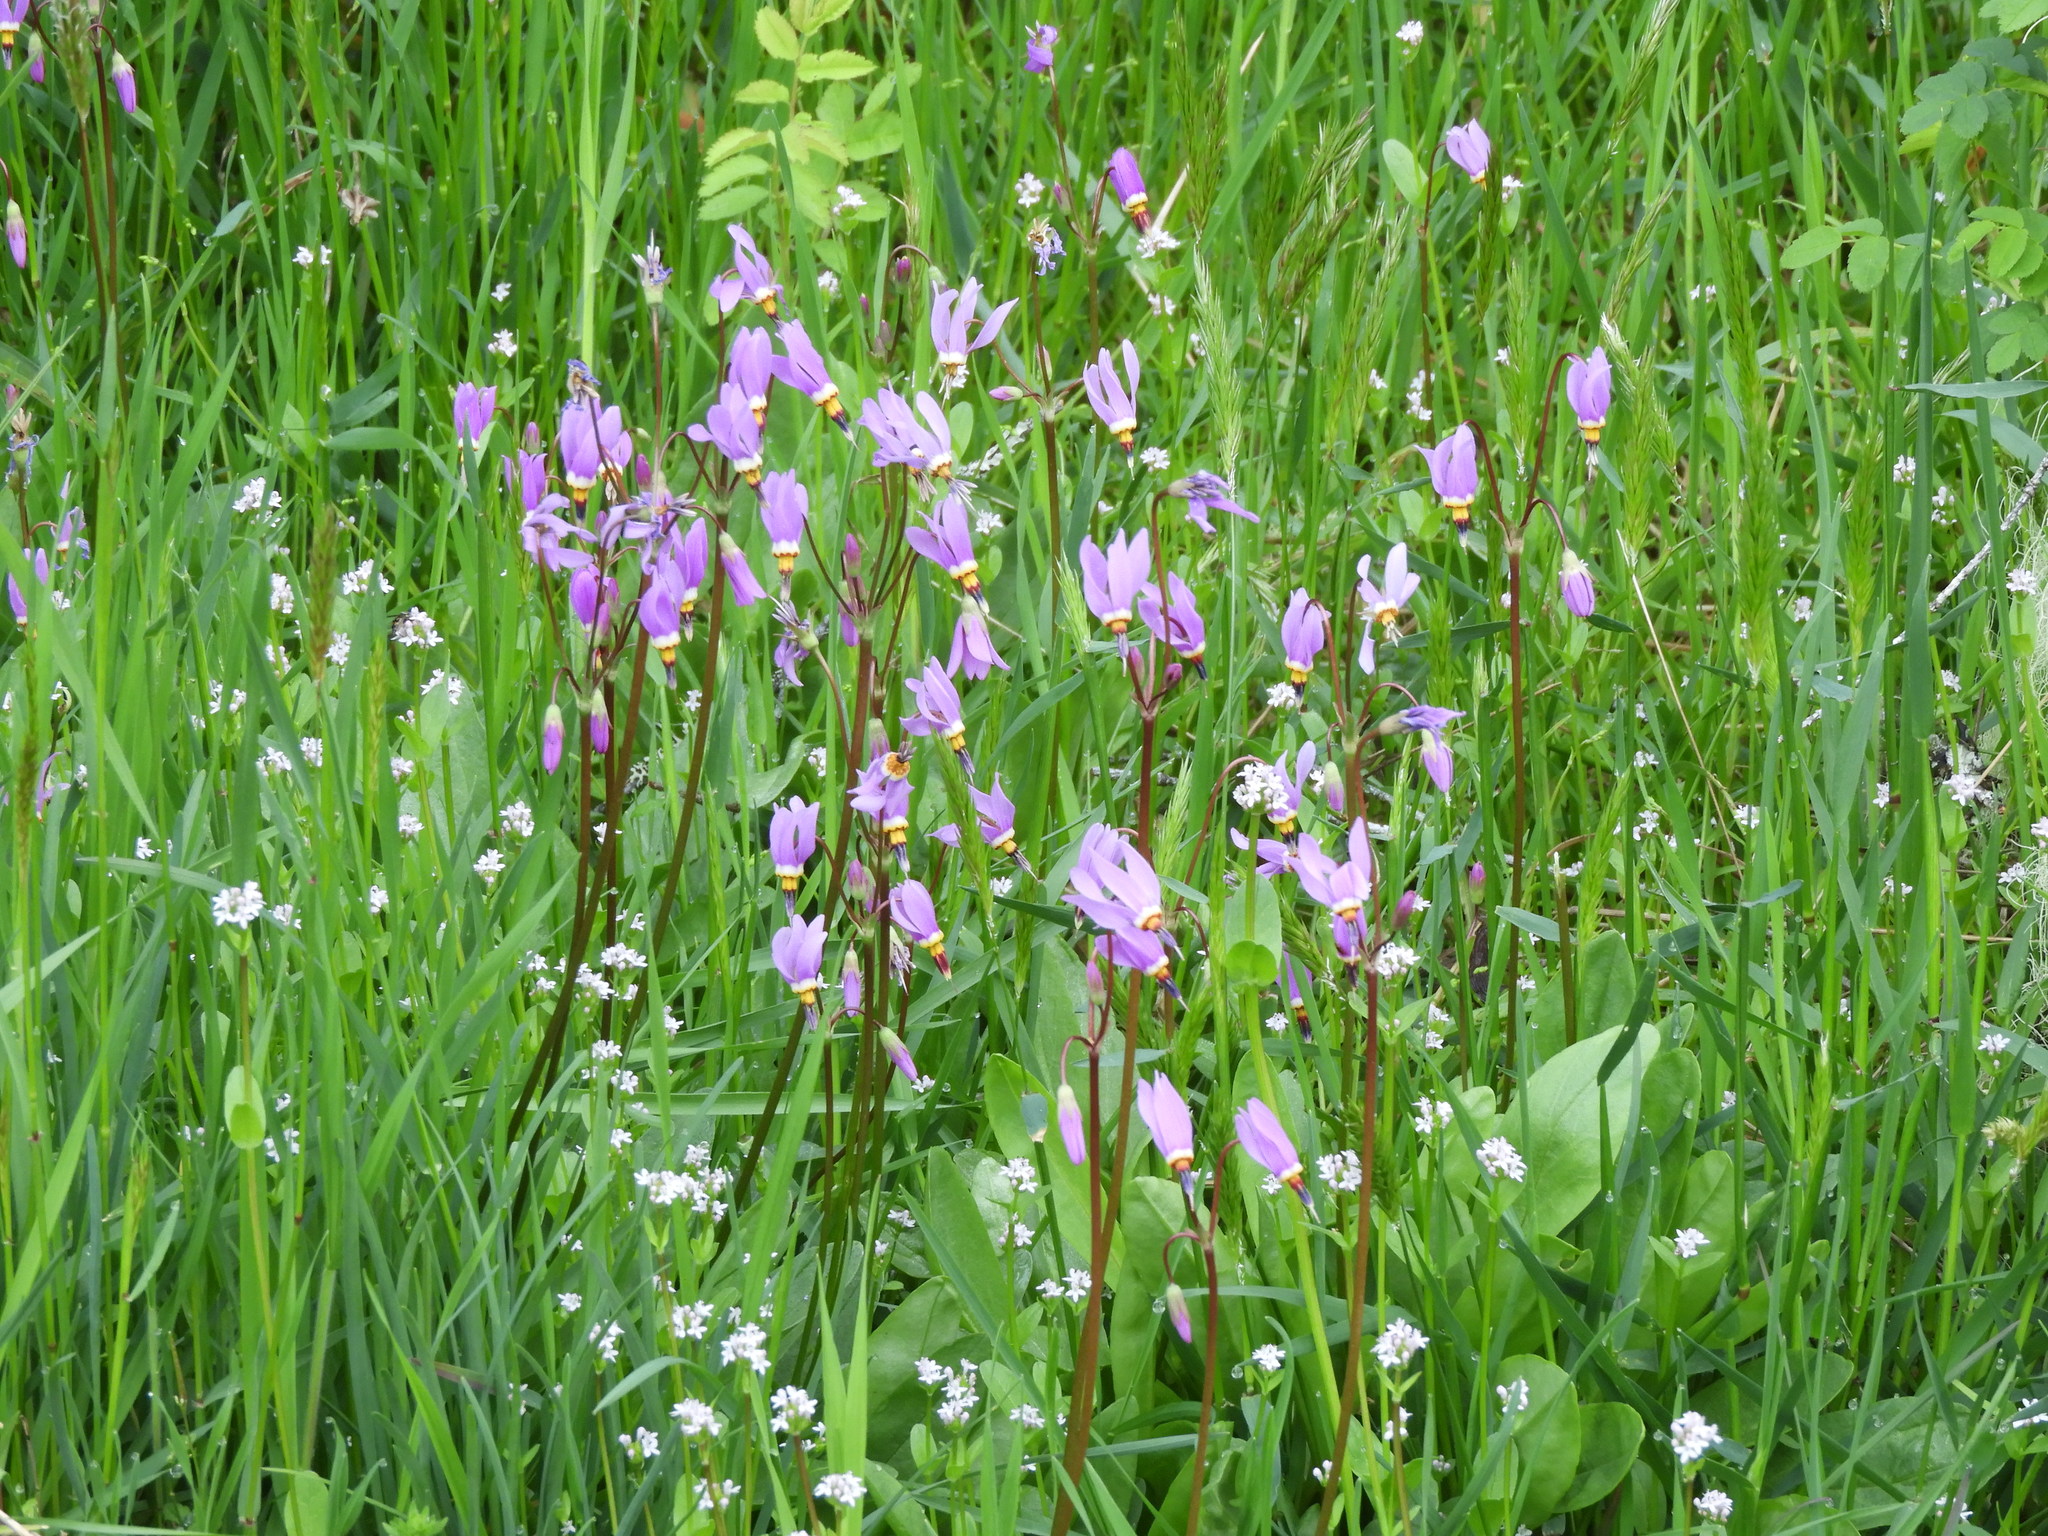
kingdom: Plantae
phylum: Tracheophyta
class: Magnoliopsida
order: Ericales
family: Primulaceae
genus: Dodecatheon
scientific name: Dodecatheon pulchellum
